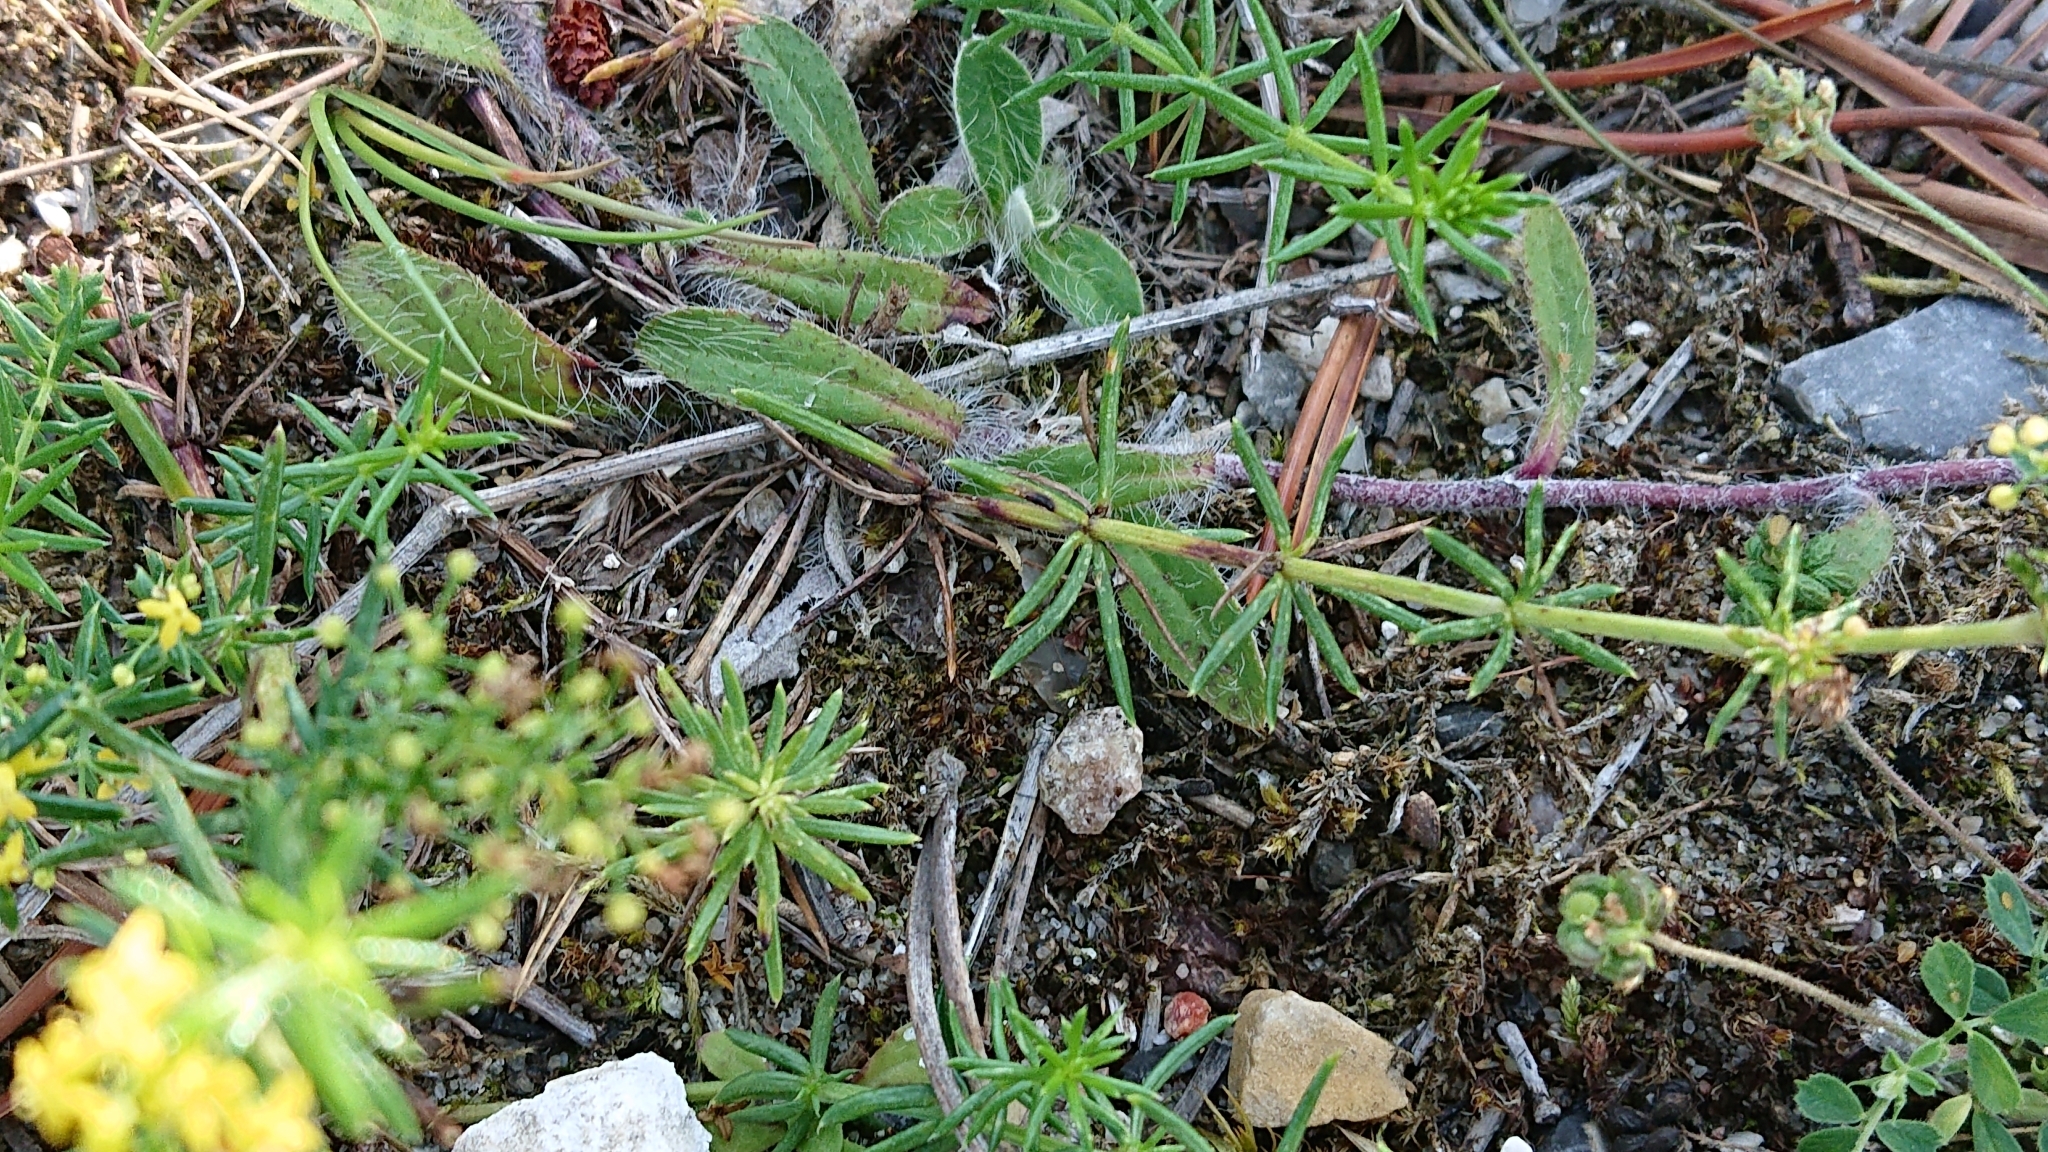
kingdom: Plantae
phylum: Tracheophyta
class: Magnoliopsida
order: Gentianales
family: Rubiaceae
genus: Galium
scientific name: Galium verum
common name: Lady's bedstraw
